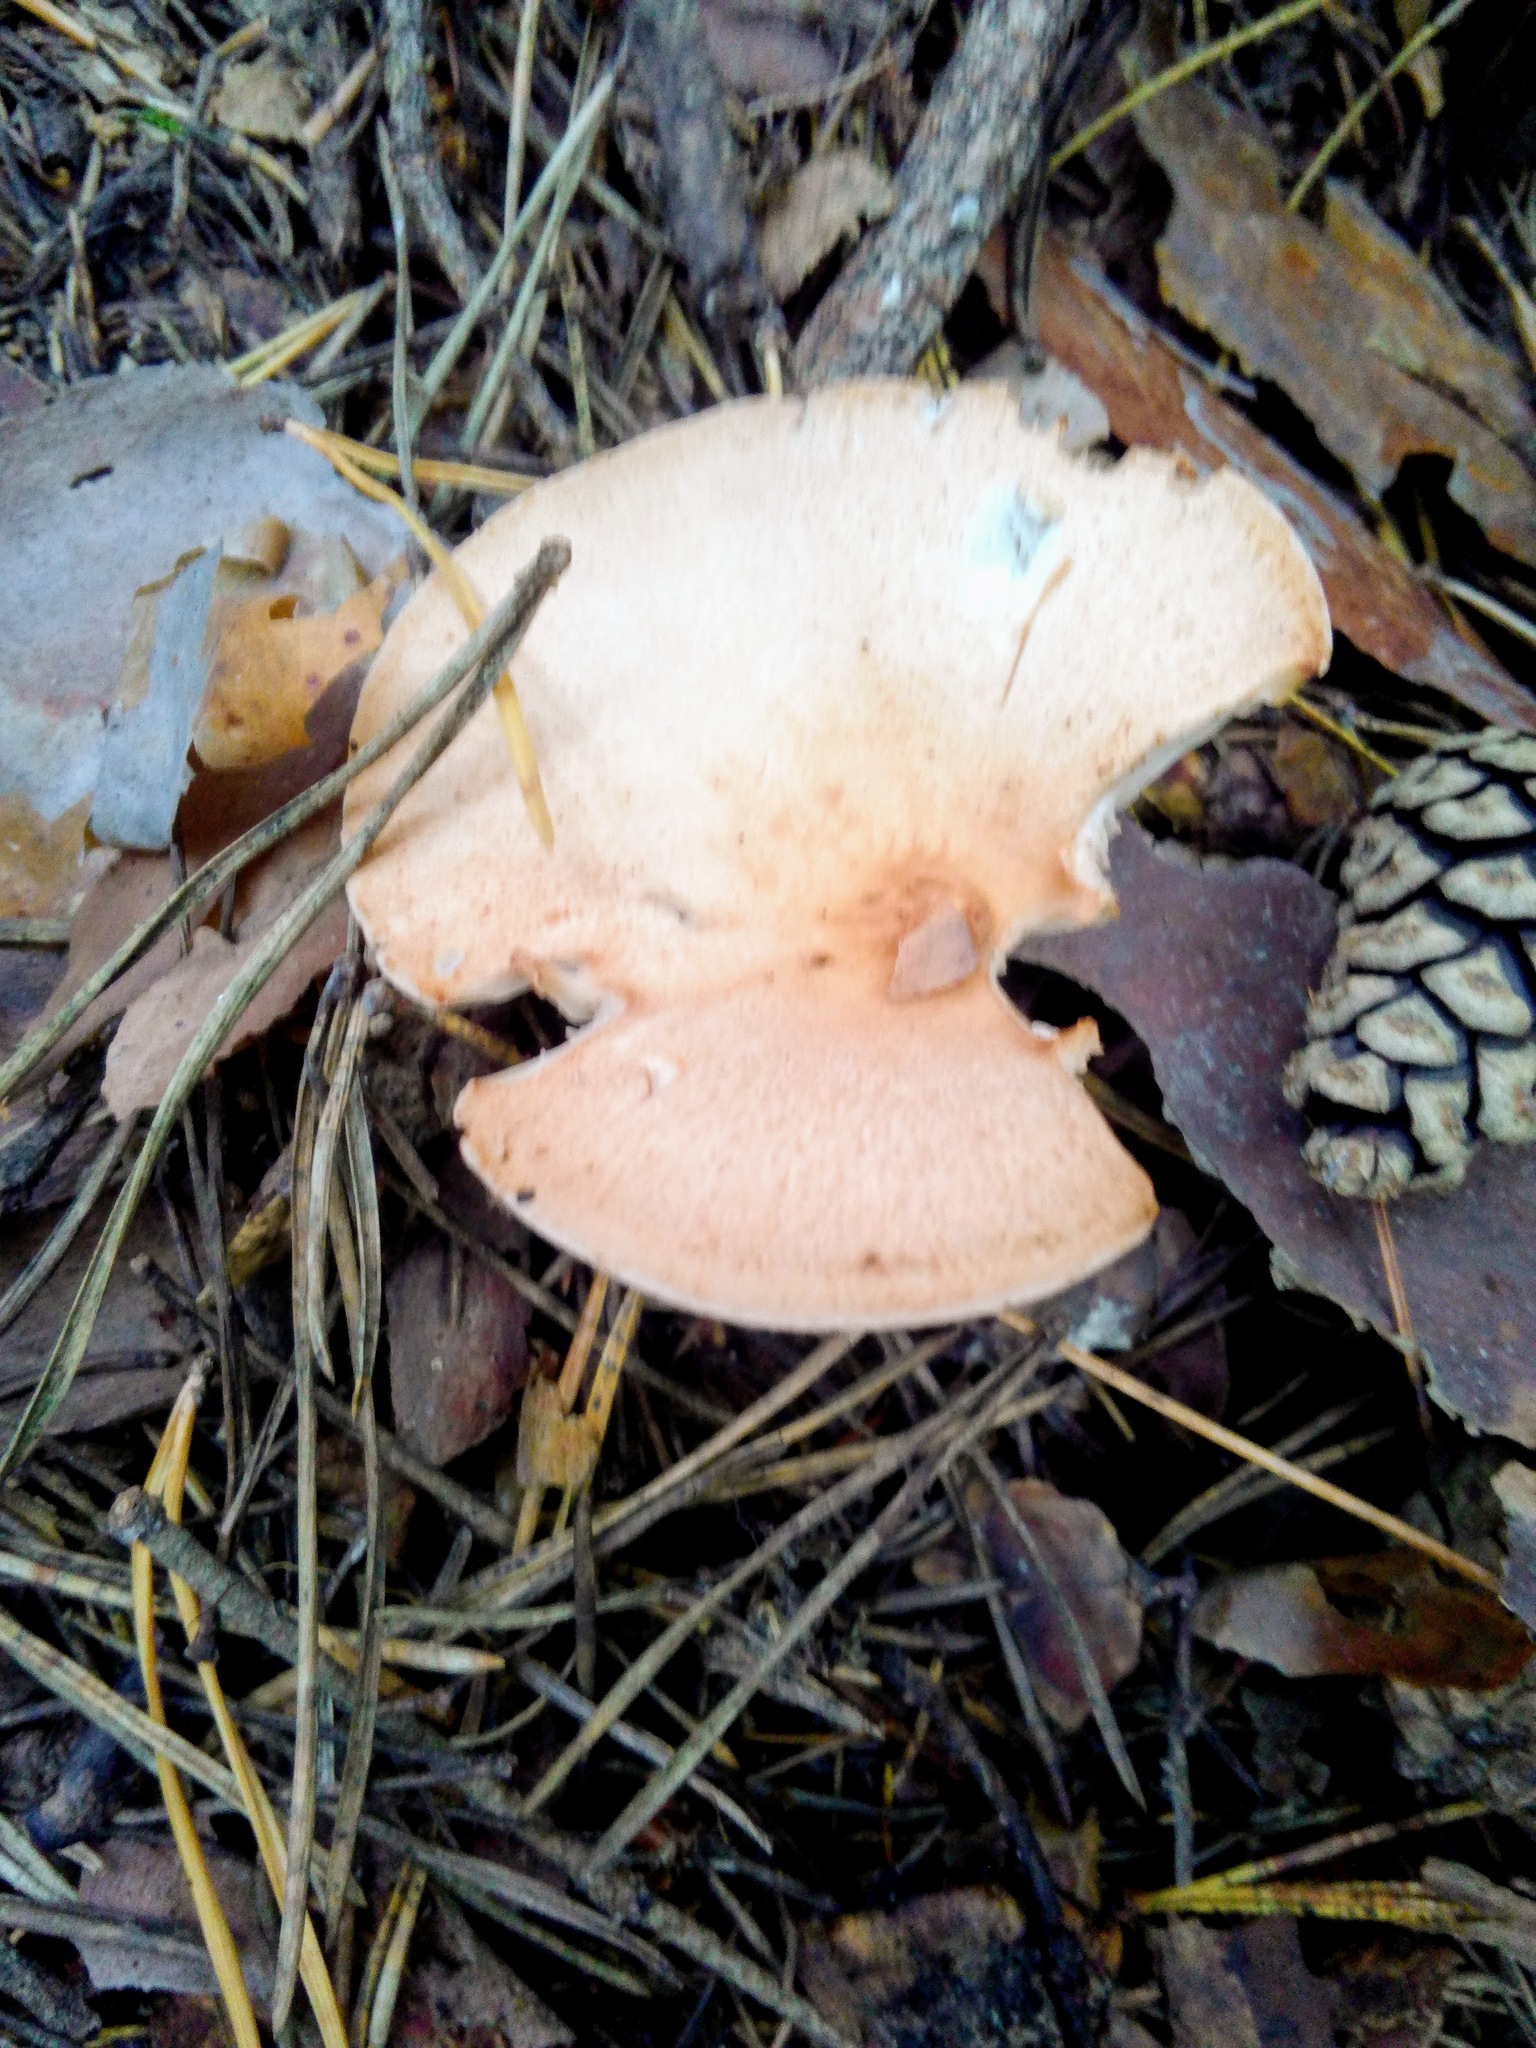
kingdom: Fungi
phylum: Basidiomycota
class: Agaricomycetes
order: Agaricales
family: Tricholomataceae
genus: Infundibulicybe
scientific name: Infundibulicybe gibba
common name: Common funnel
